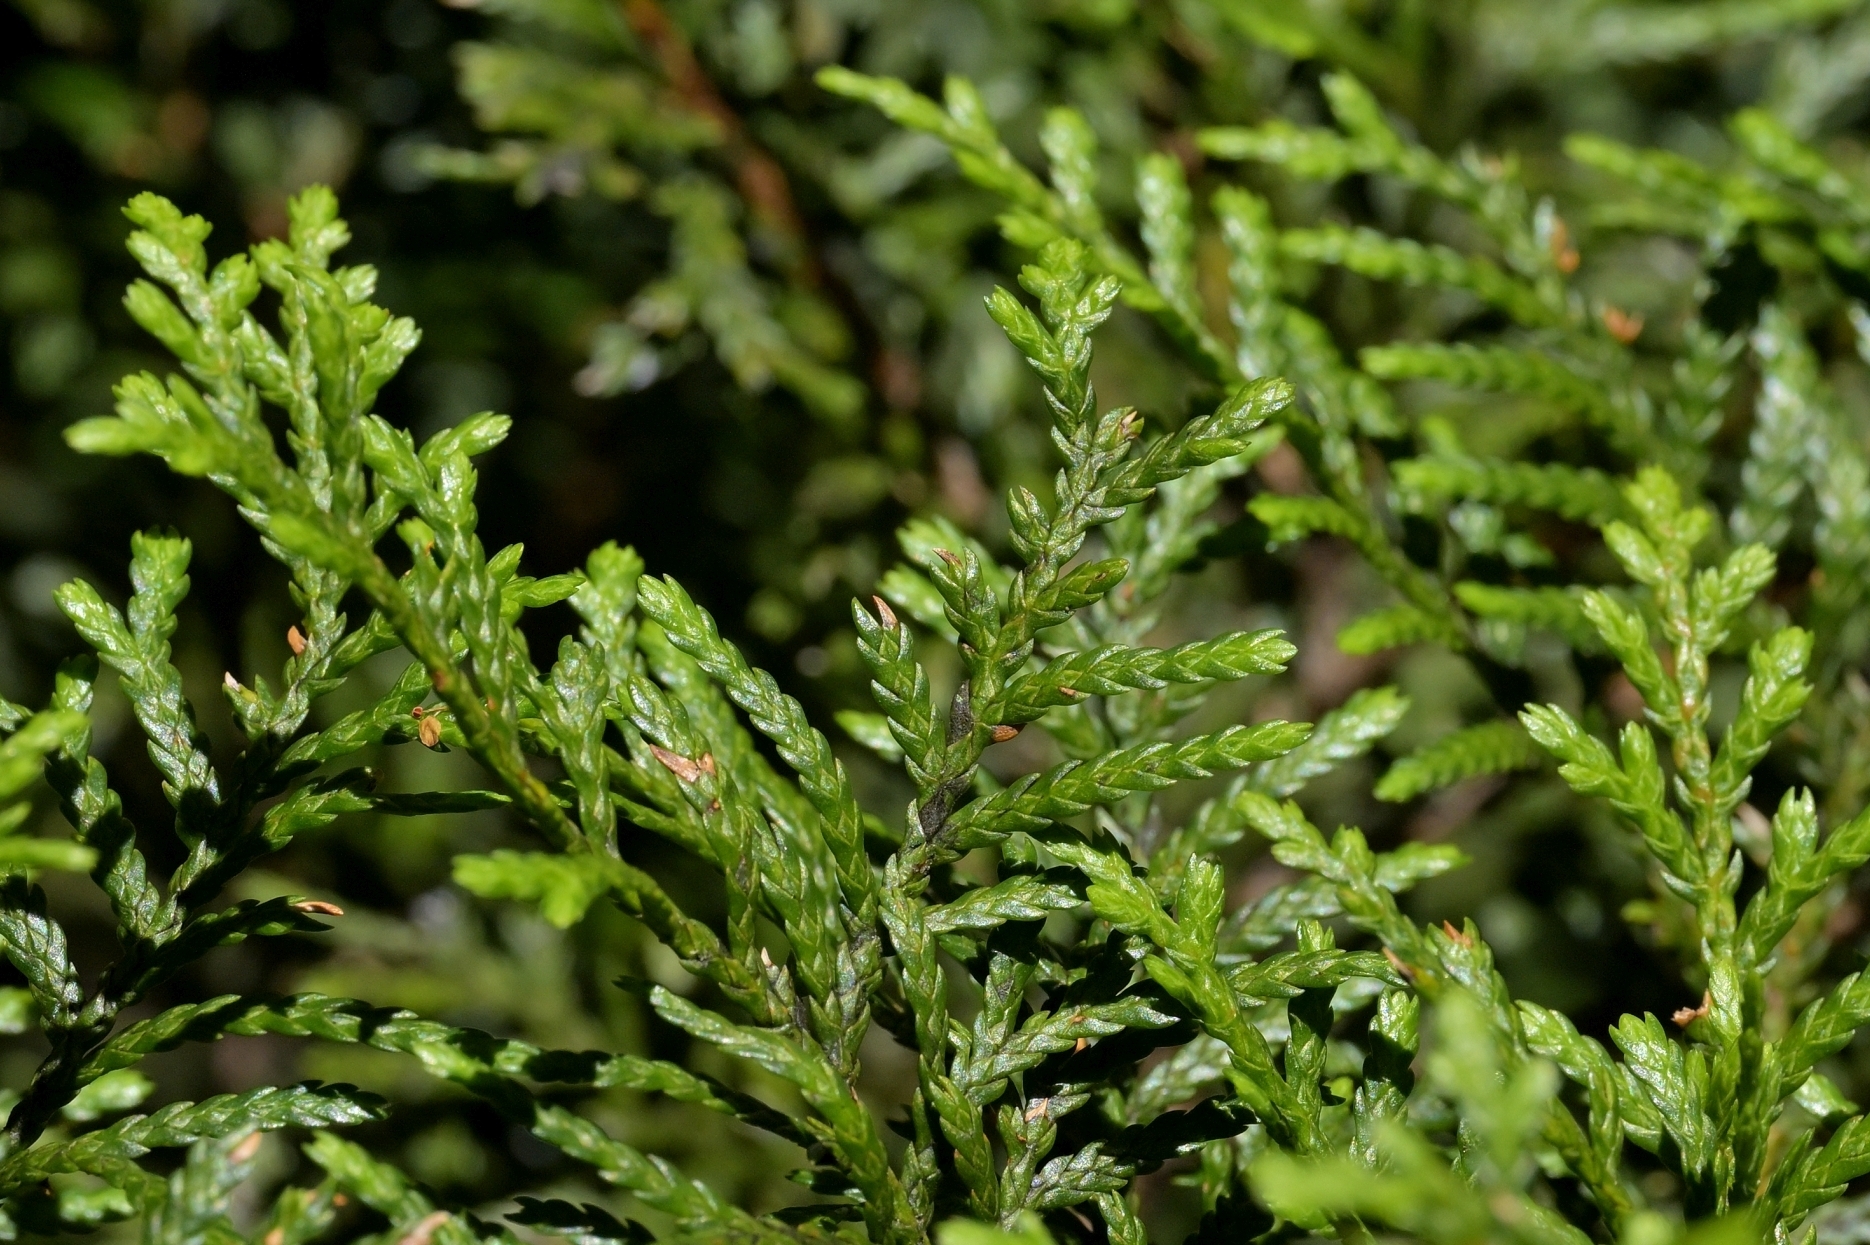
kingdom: Plantae
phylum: Tracheophyta
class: Pinopsida
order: Pinales
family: Cupressaceae
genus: Libocedrus
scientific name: Libocedrus bidwillii
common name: Cedar
